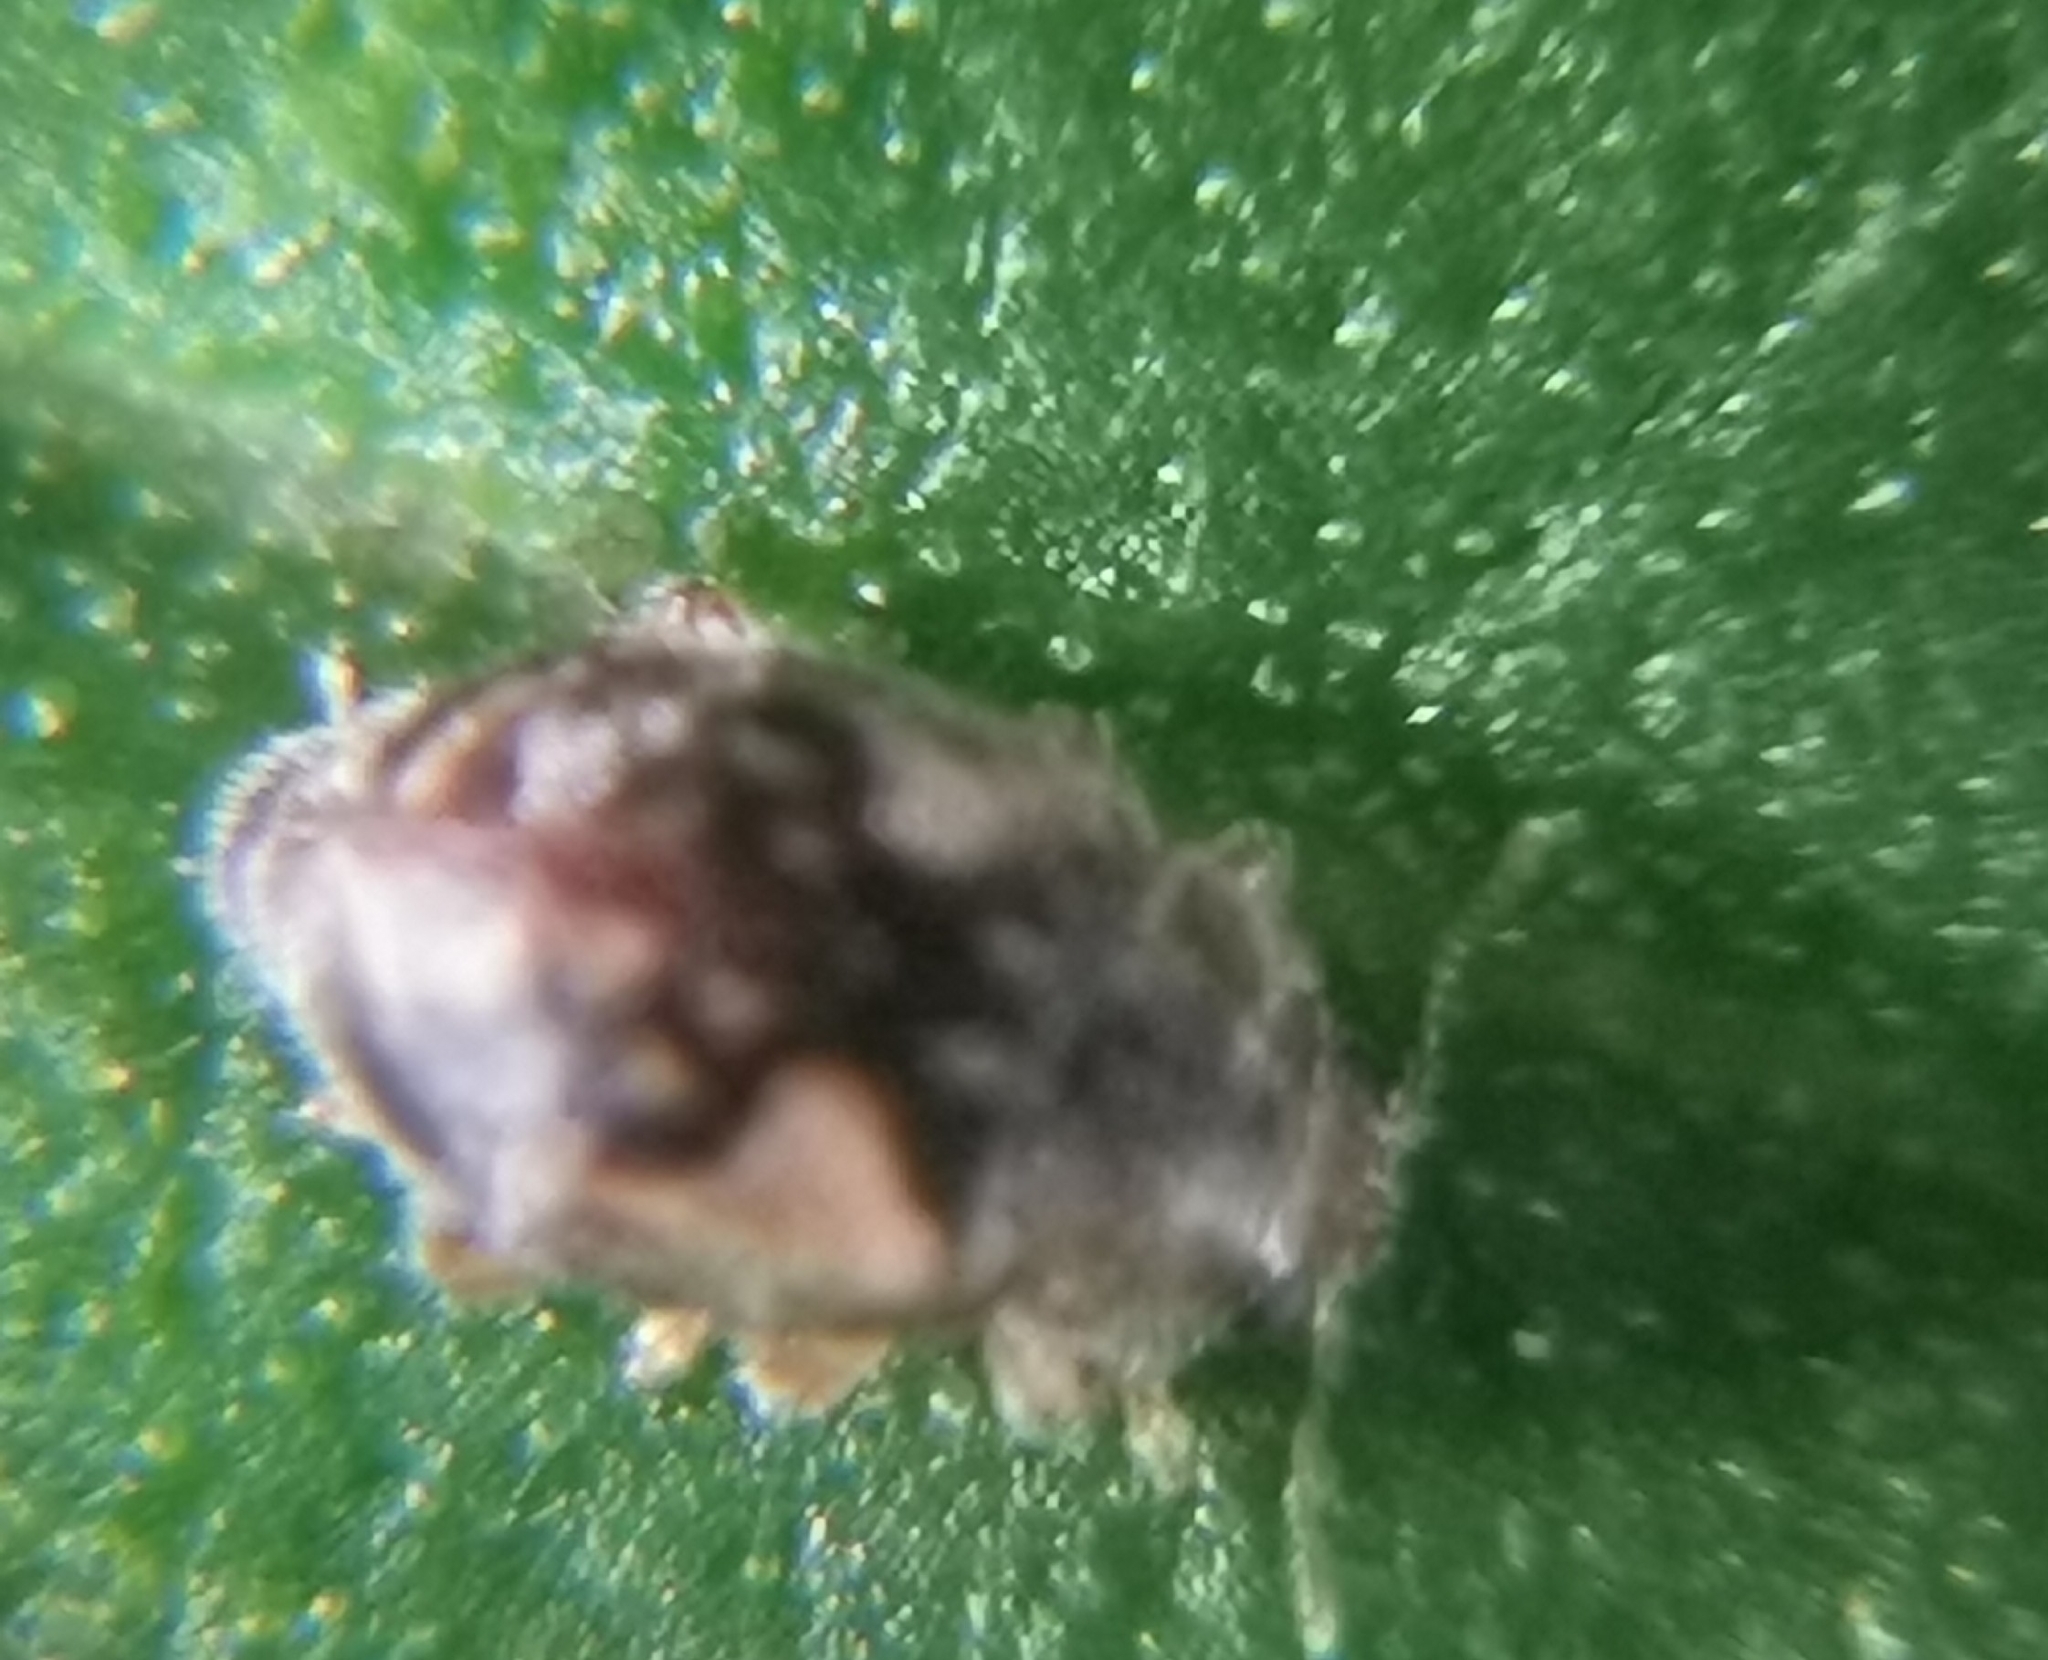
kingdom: Animalia
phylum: Arthropoda
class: Insecta
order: Coleoptera
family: Coccinellidae
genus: Rhyzobius
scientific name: Rhyzobius
